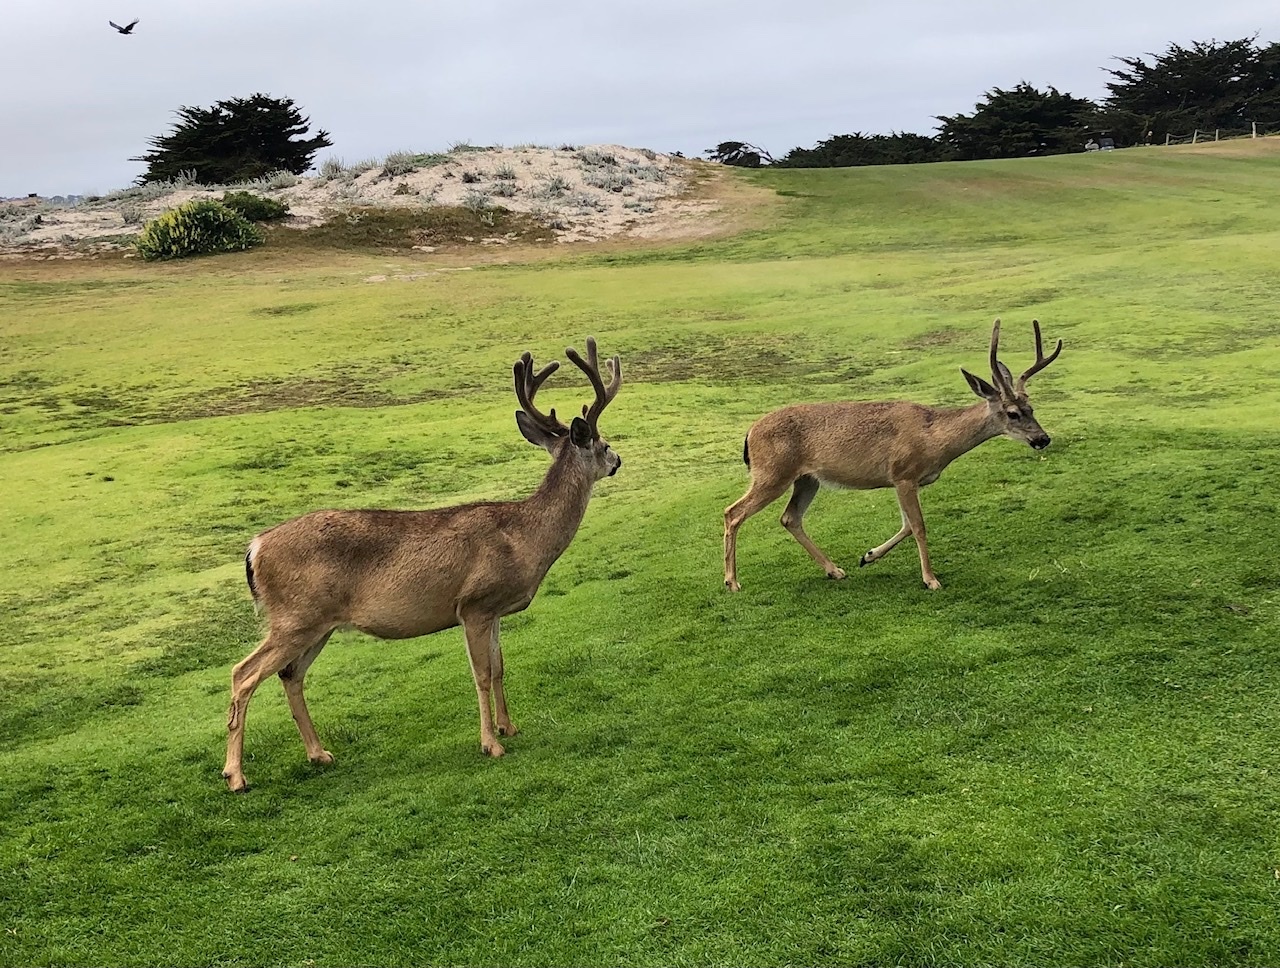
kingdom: Animalia
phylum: Chordata
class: Mammalia
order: Artiodactyla
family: Cervidae
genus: Odocoileus
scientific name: Odocoileus hemionus
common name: Mule deer
